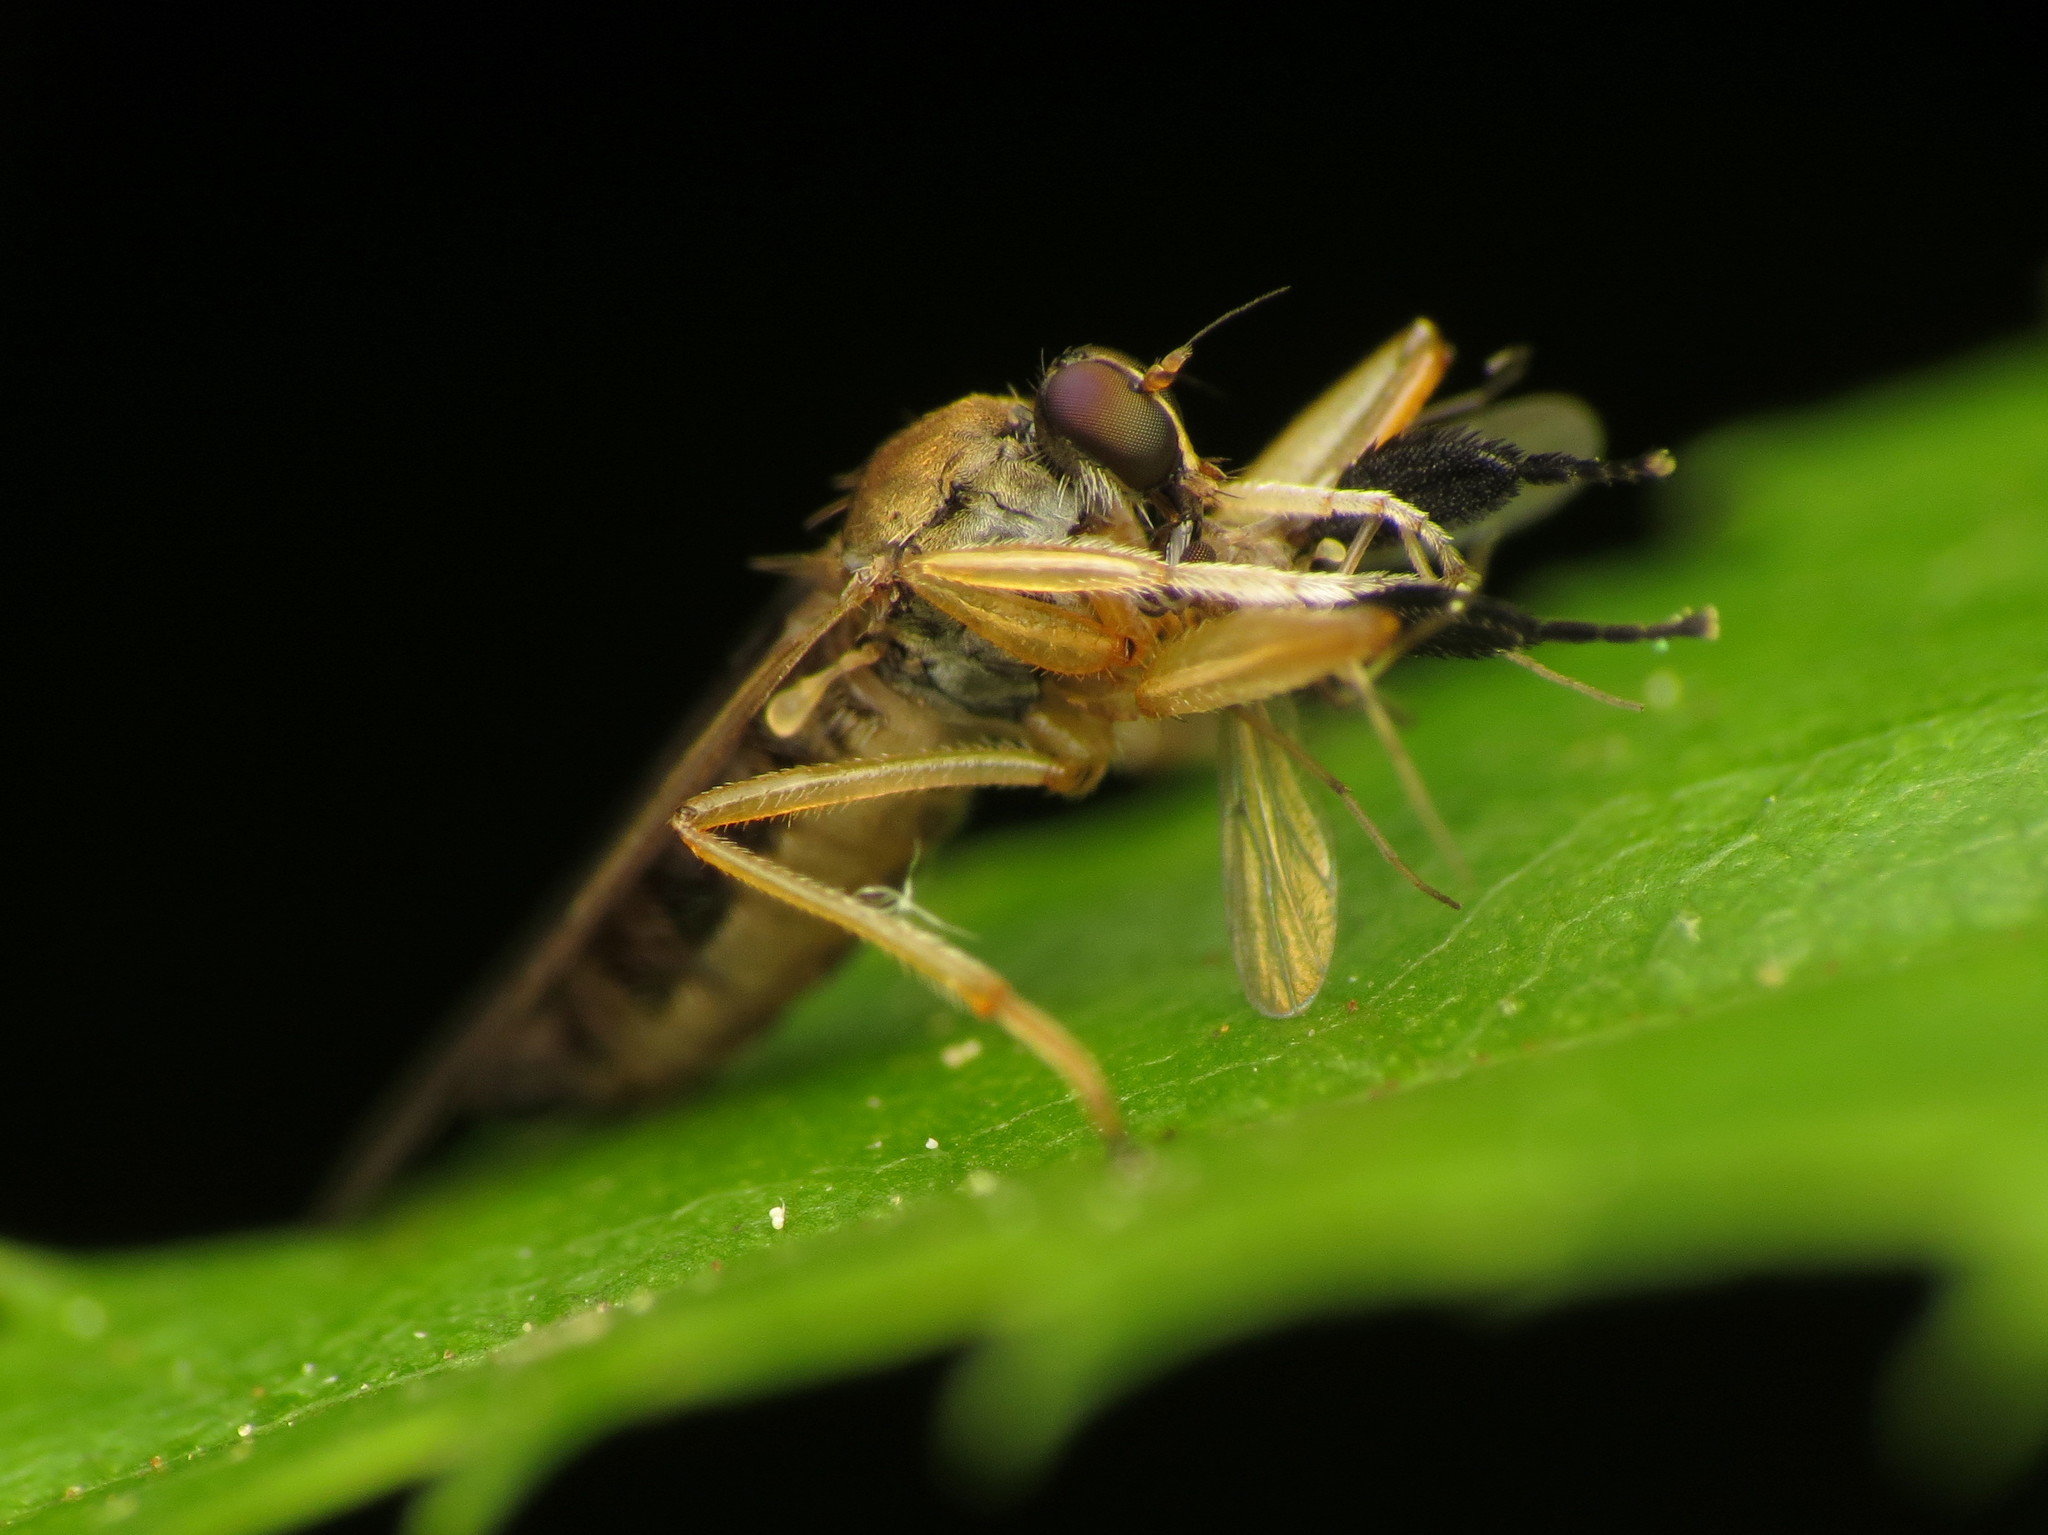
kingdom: Animalia
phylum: Arthropoda
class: Insecta
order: Diptera
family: Hybotidae
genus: Platypalpus
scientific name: Platypalpus discifer
